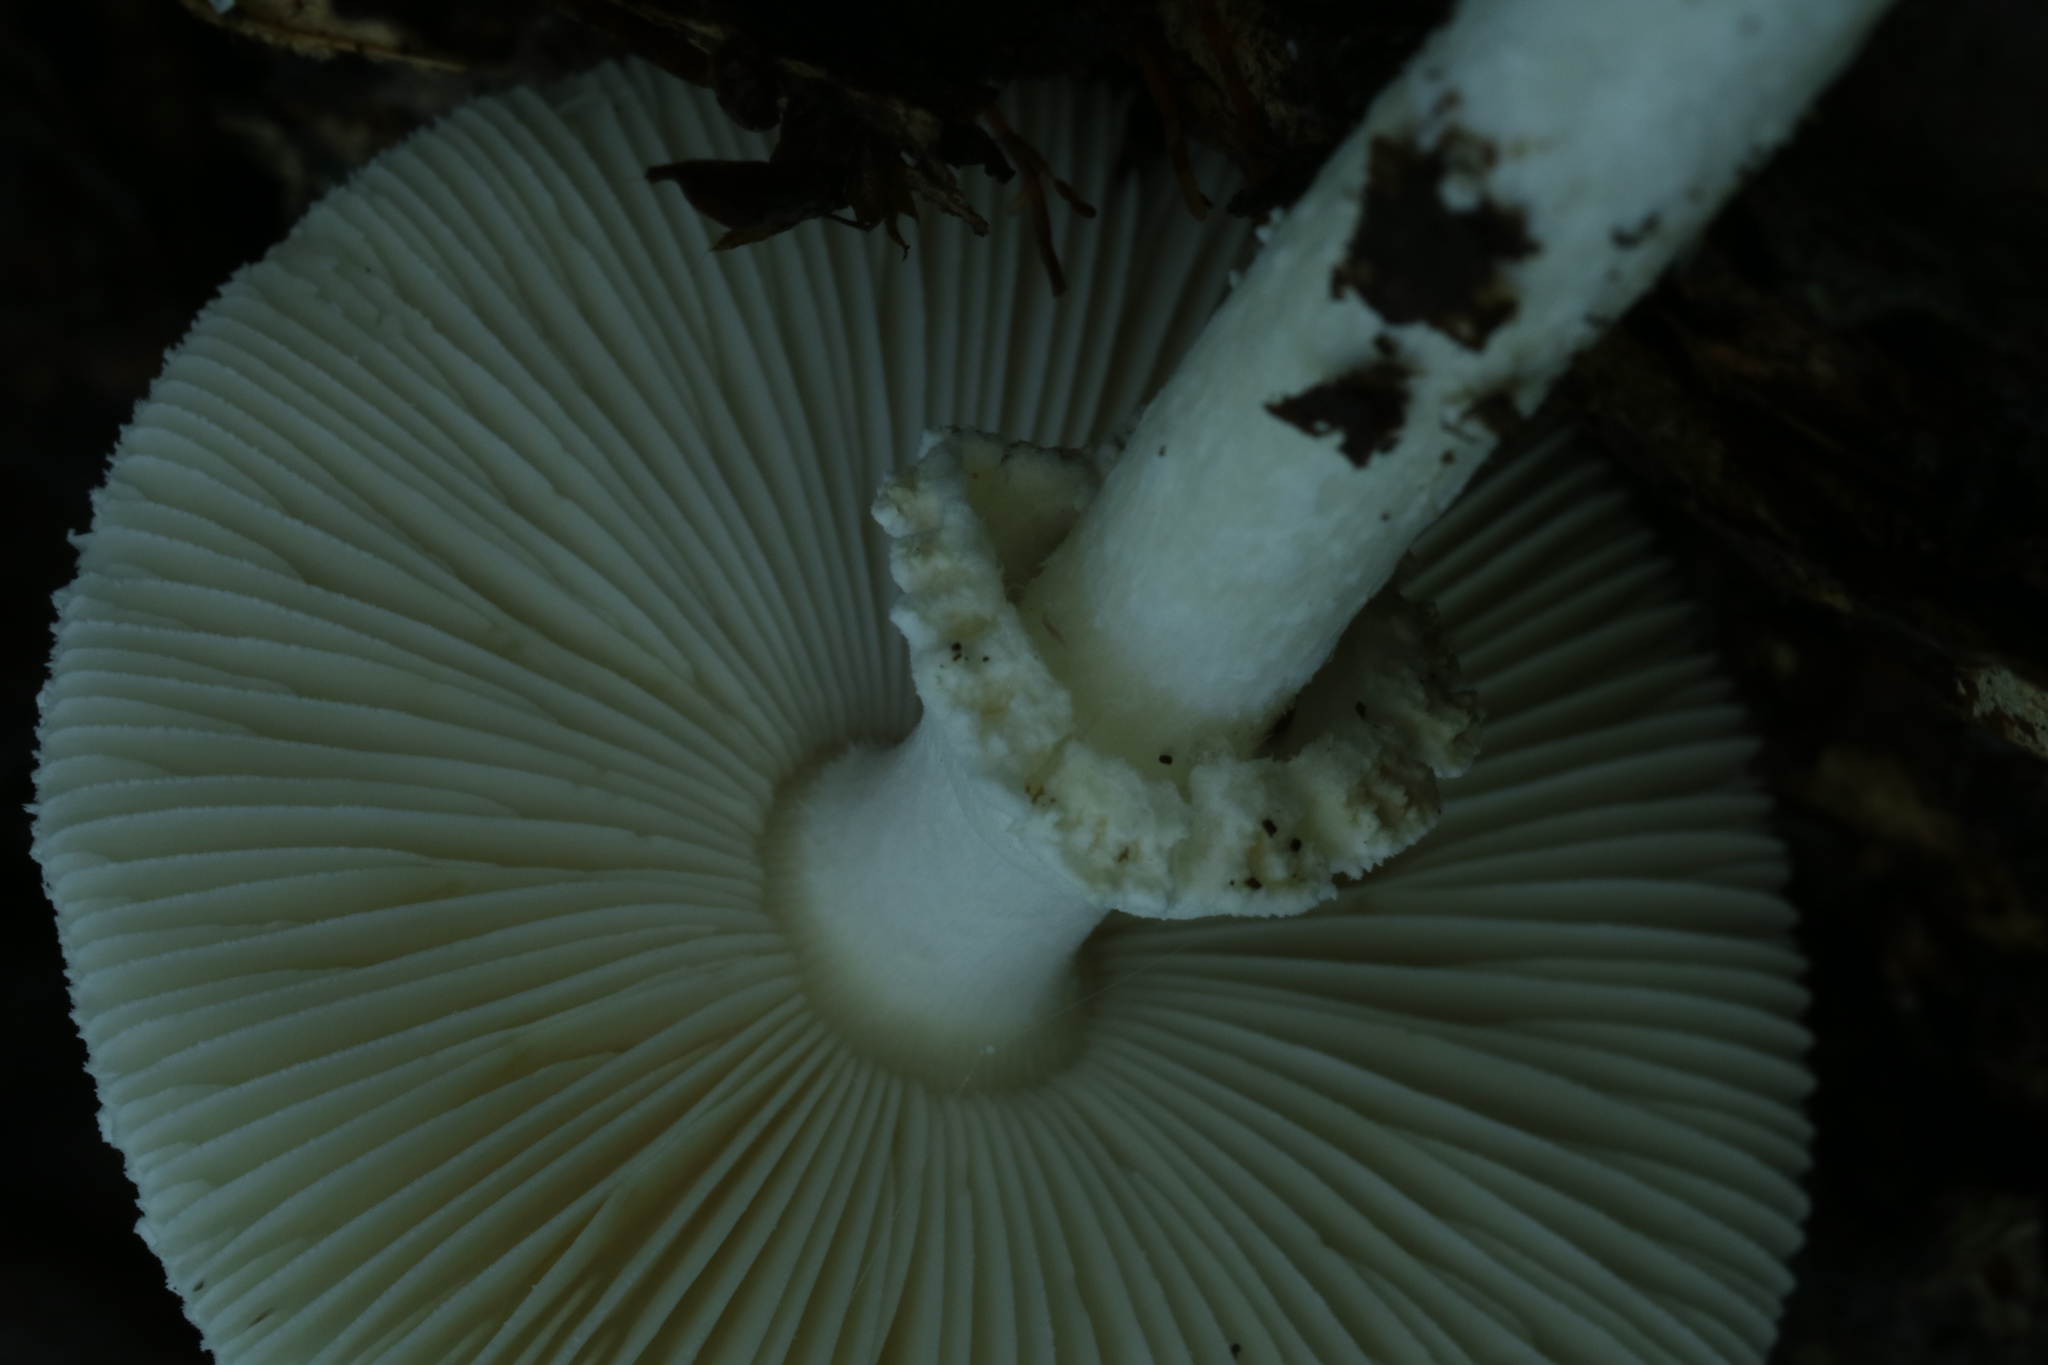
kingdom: Fungi
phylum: Basidiomycota
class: Agaricomycetes
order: Agaricales
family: Amanitaceae
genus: Amanita
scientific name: Amanita abrupta
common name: American abrupt-bulbed lepidella
